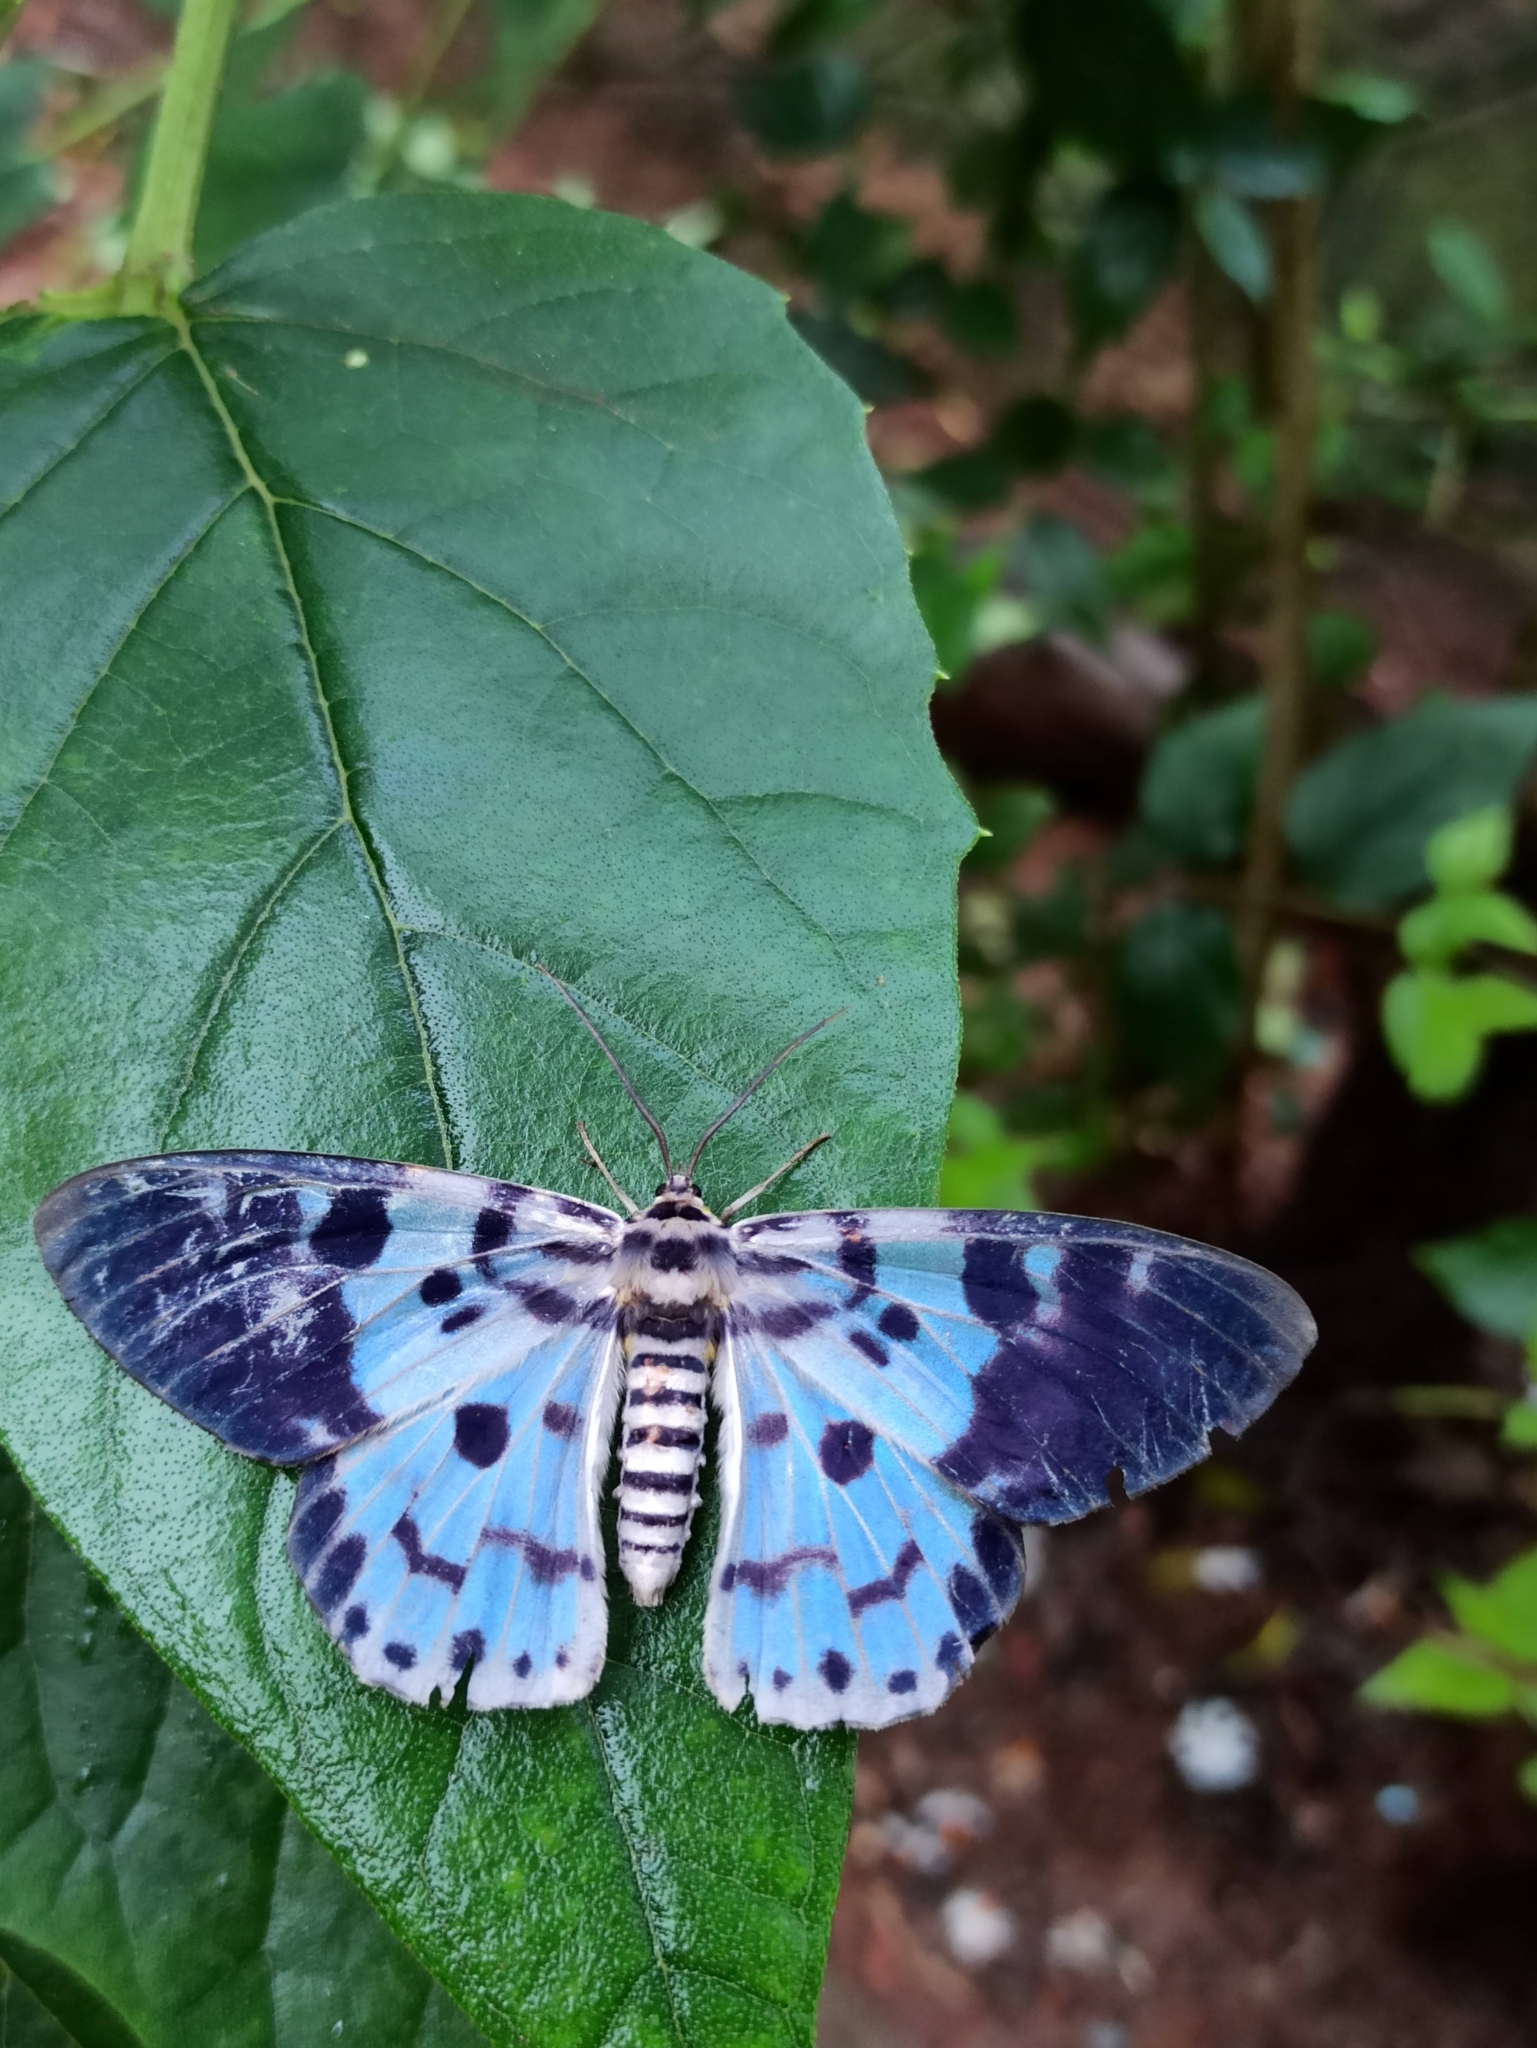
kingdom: Animalia
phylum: Arthropoda
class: Insecta
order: Lepidoptera
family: Geometridae
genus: Dysphania
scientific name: Dysphania percota
